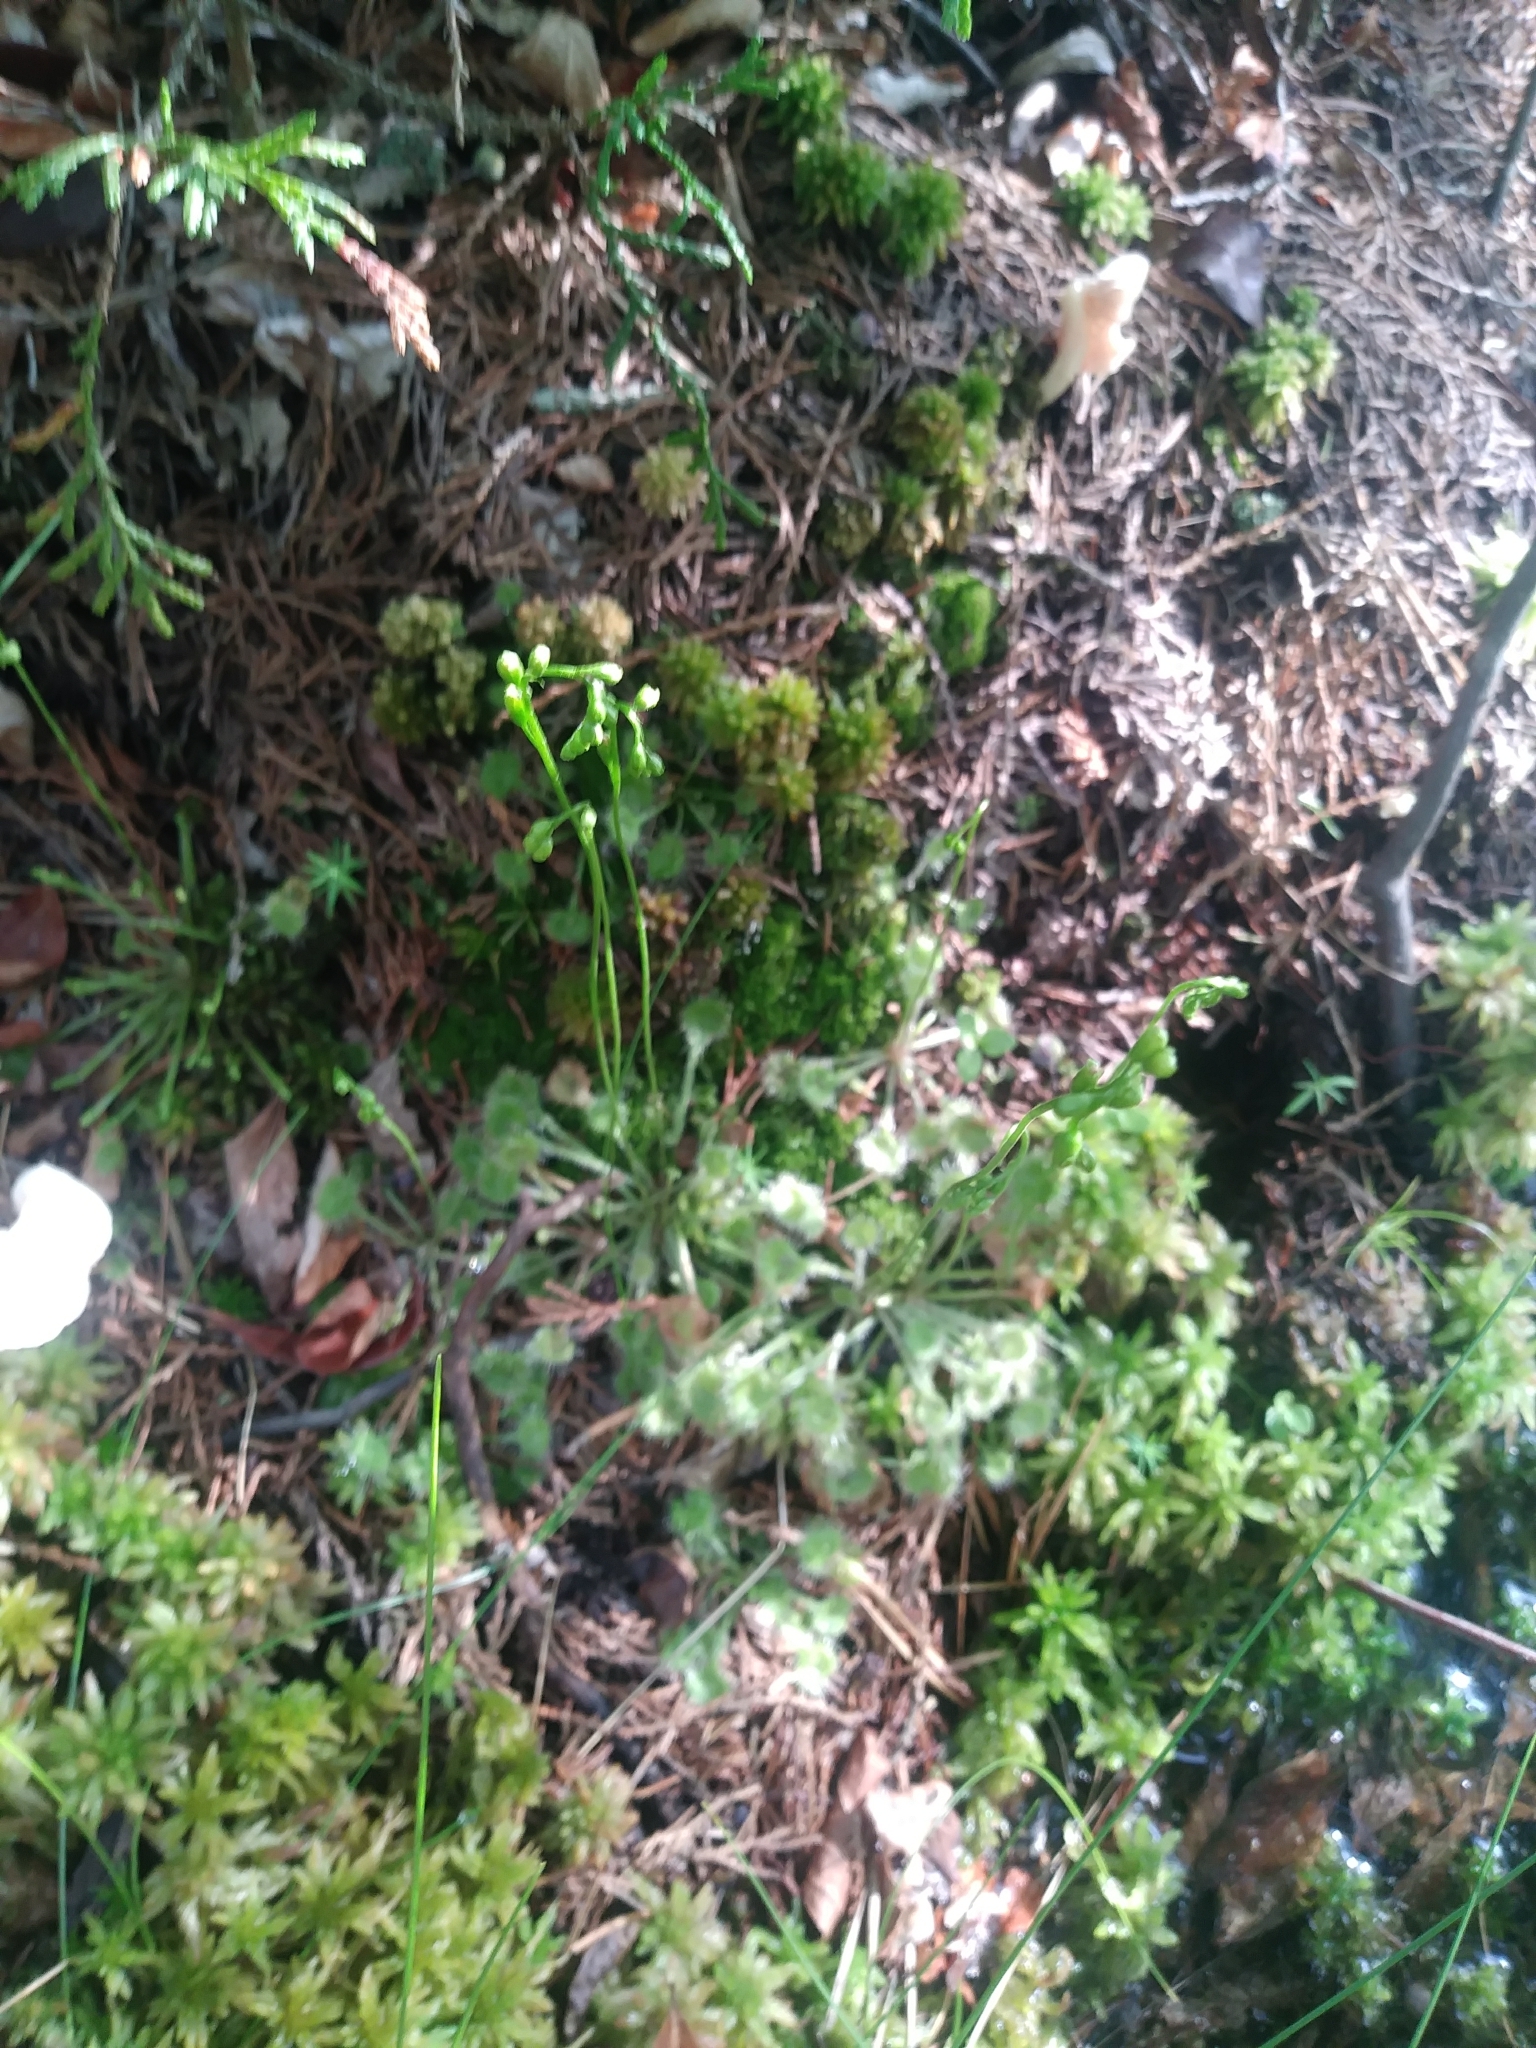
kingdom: Plantae
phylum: Tracheophyta
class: Magnoliopsida
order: Caryophyllales
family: Droseraceae
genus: Drosera
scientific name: Drosera rotundifolia
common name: Round-leaved sundew
